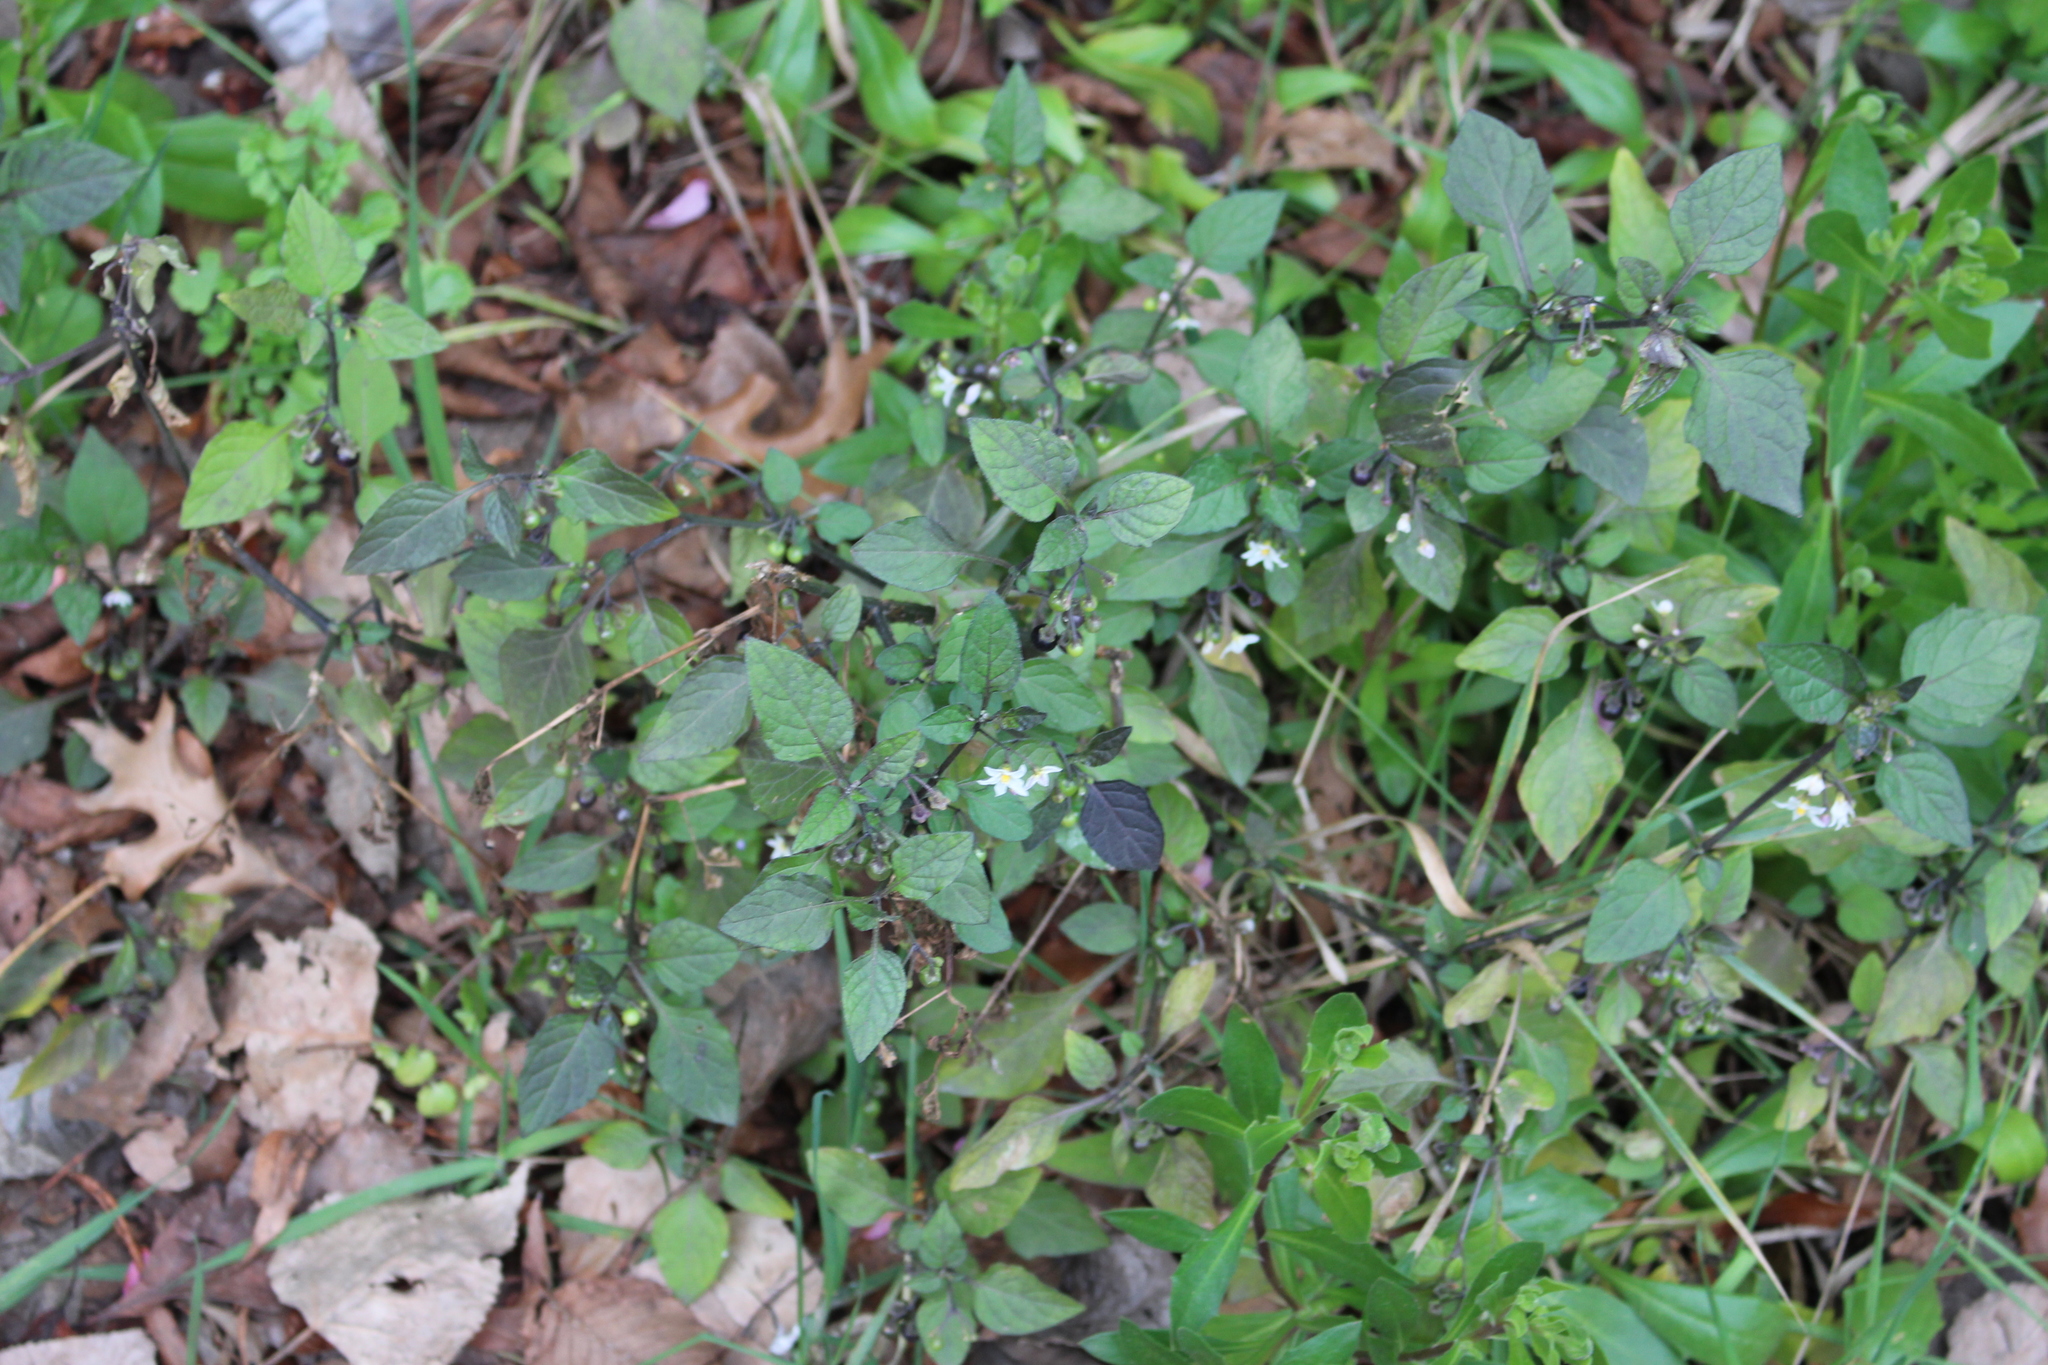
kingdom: Plantae
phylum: Tracheophyta
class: Magnoliopsida
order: Solanales
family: Solanaceae
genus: Solanum
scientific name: Solanum nigrum
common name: Black nightshade
